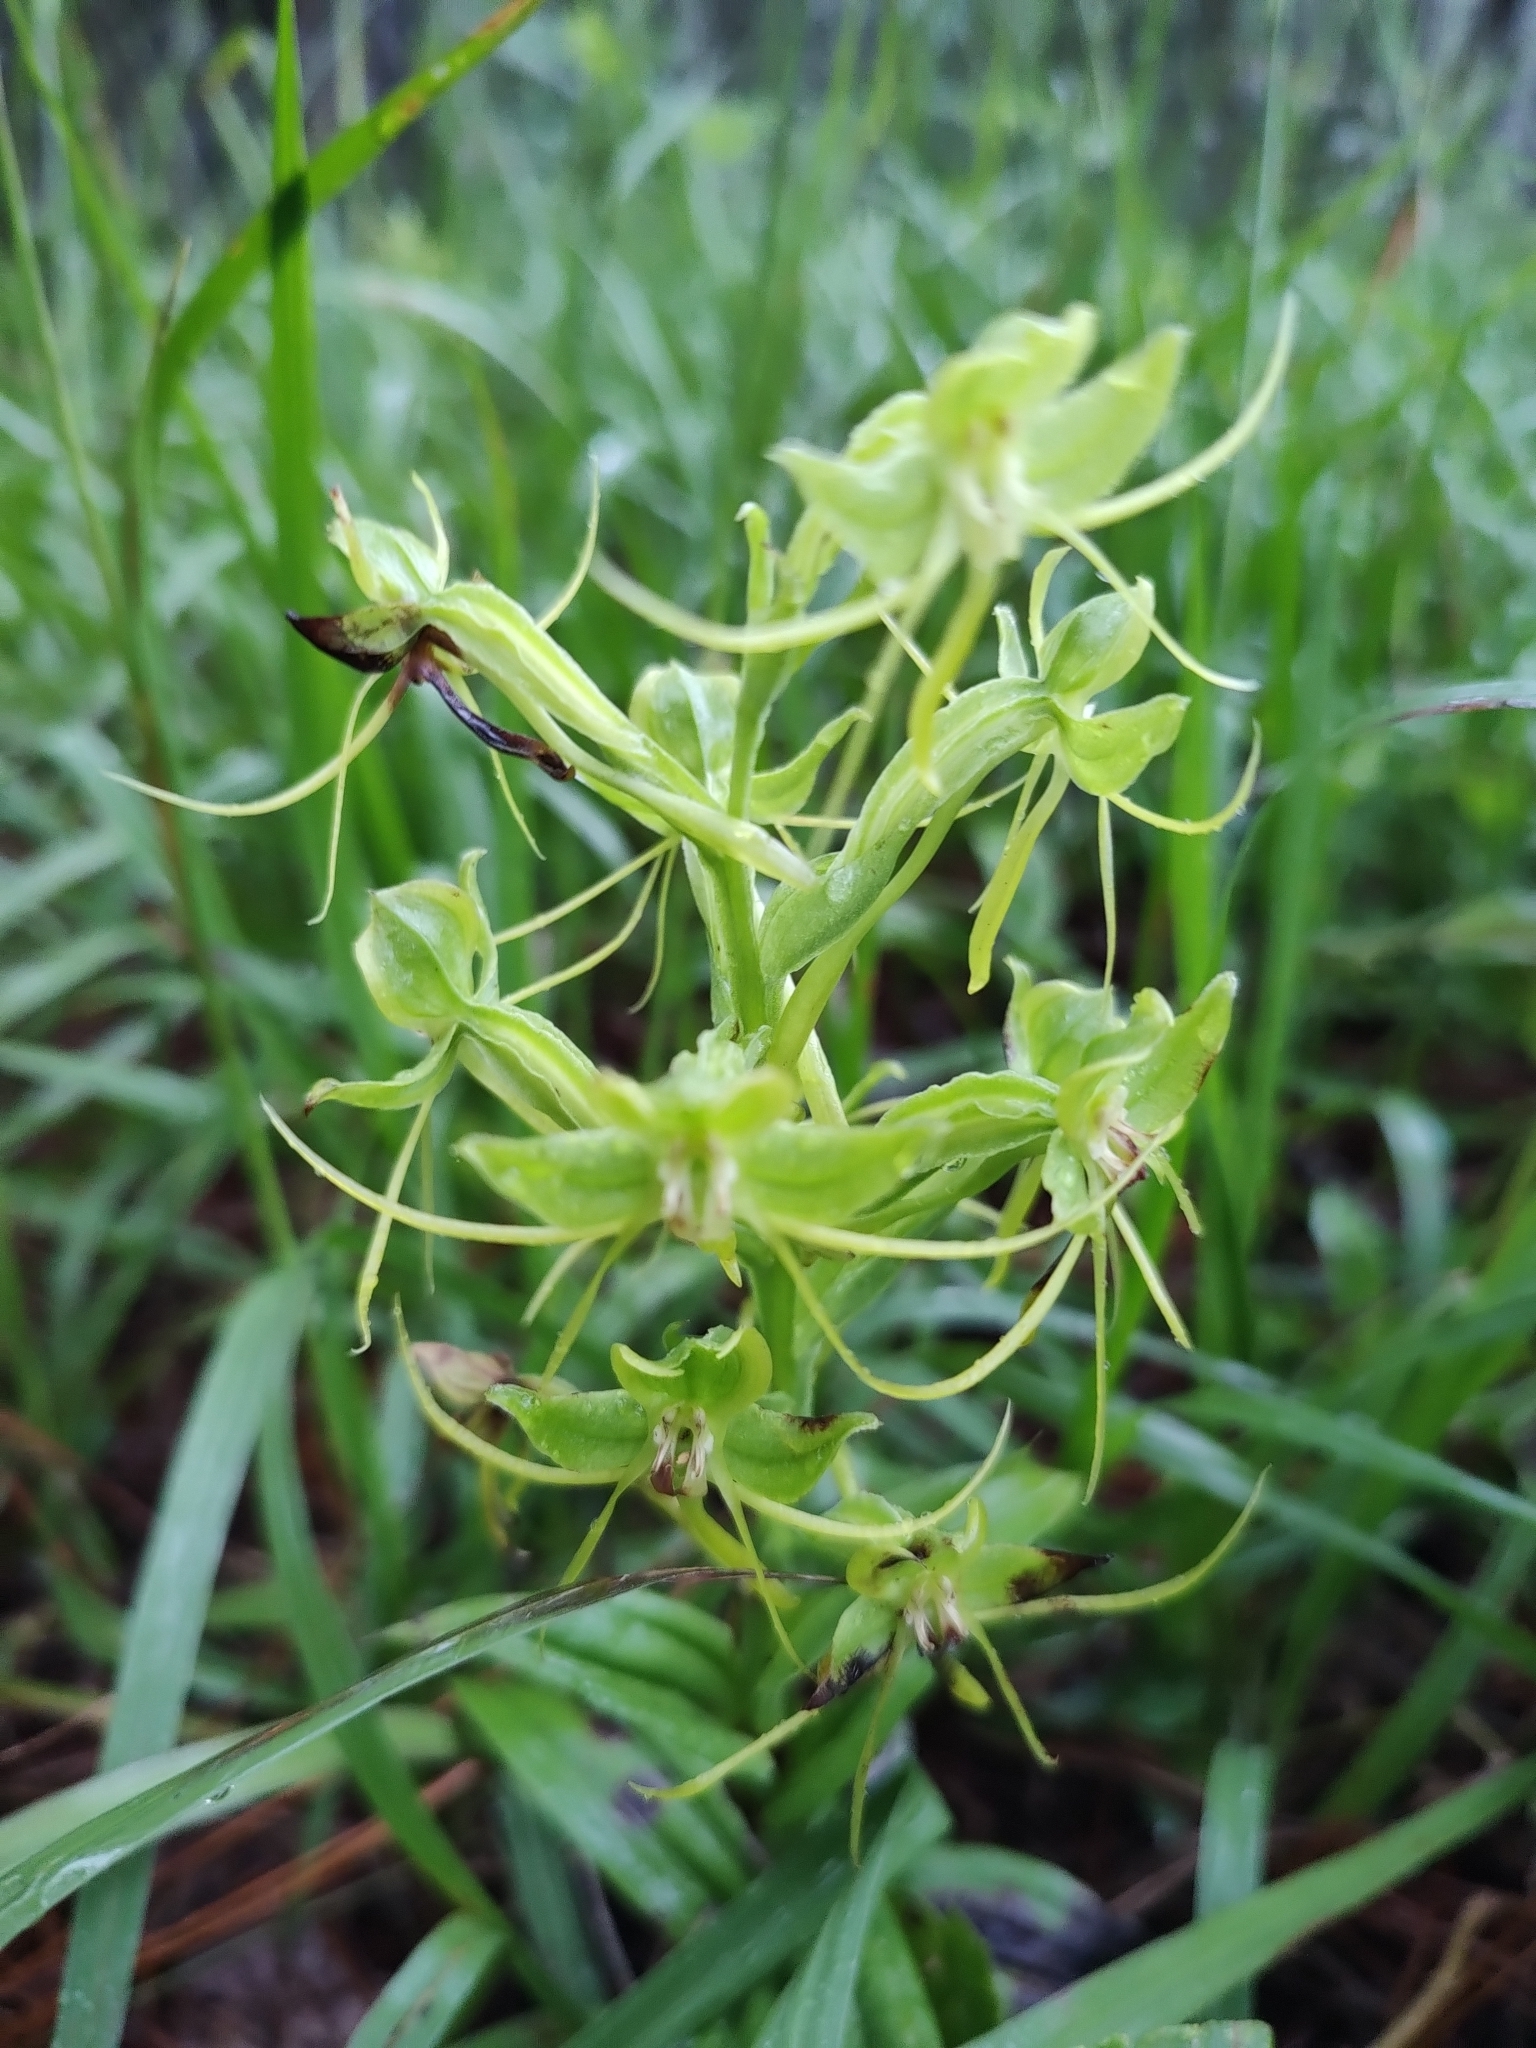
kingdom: Plantae
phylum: Tracheophyta
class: Liliopsida
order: Asparagales
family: Orchidaceae
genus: Habenaria
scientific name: Habenaria jaliscana
